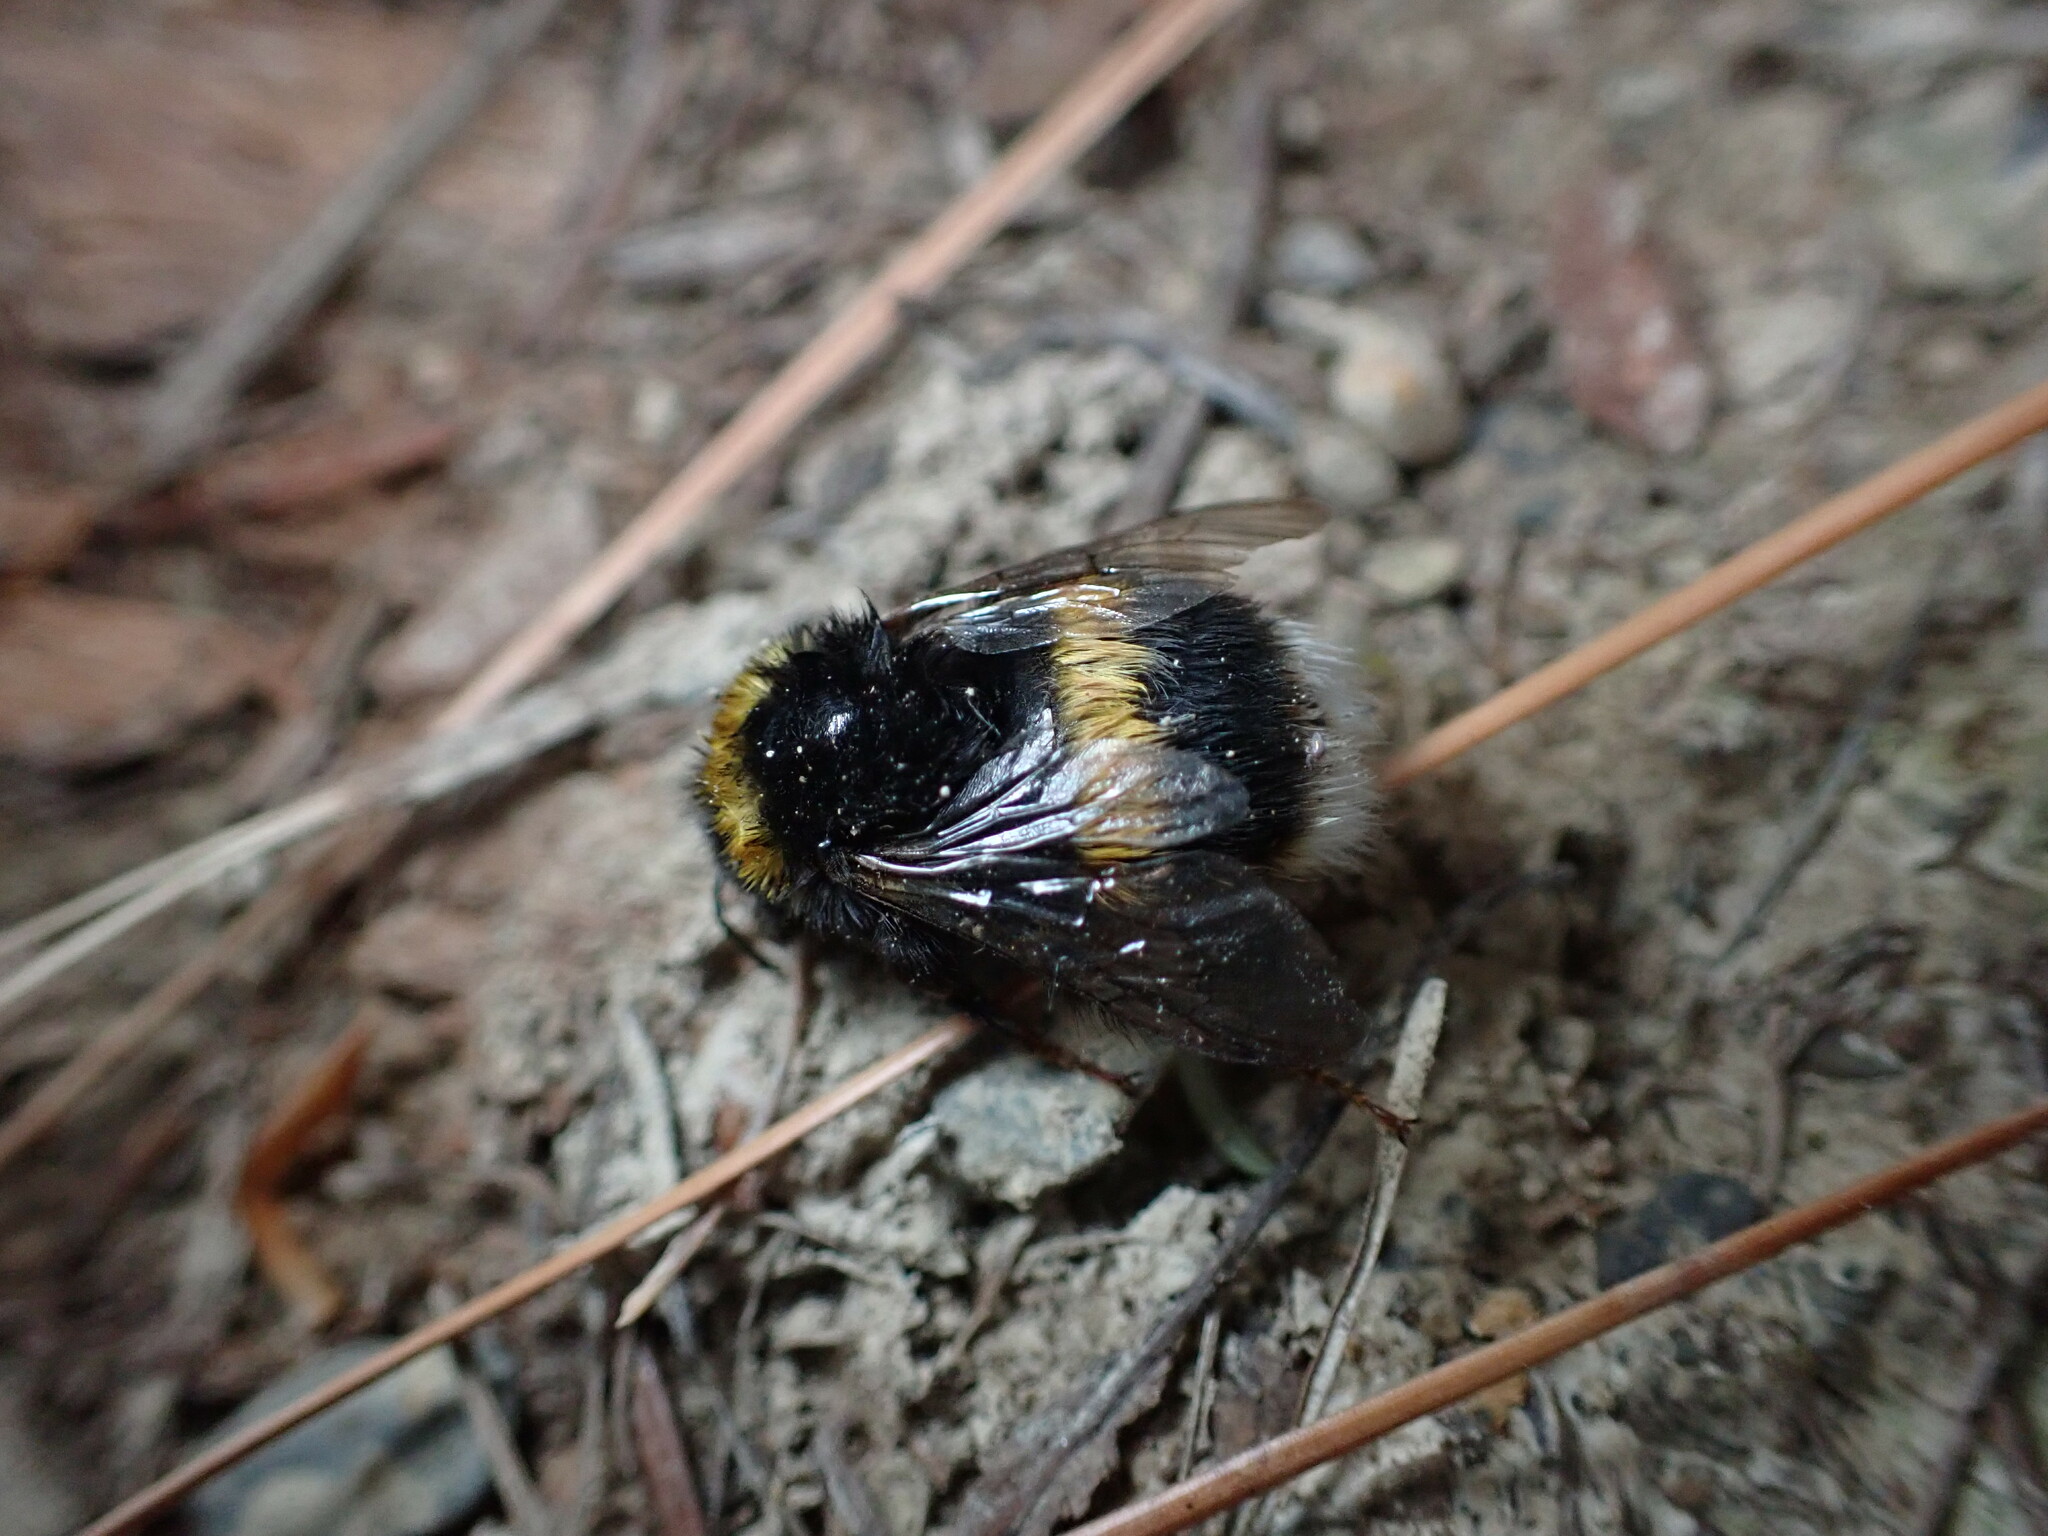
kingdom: Animalia
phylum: Arthropoda
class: Insecta
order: Hymenoptera
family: Apidae
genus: Bombus
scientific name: Bombus terrestris
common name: Buff-tailed bumblebee
